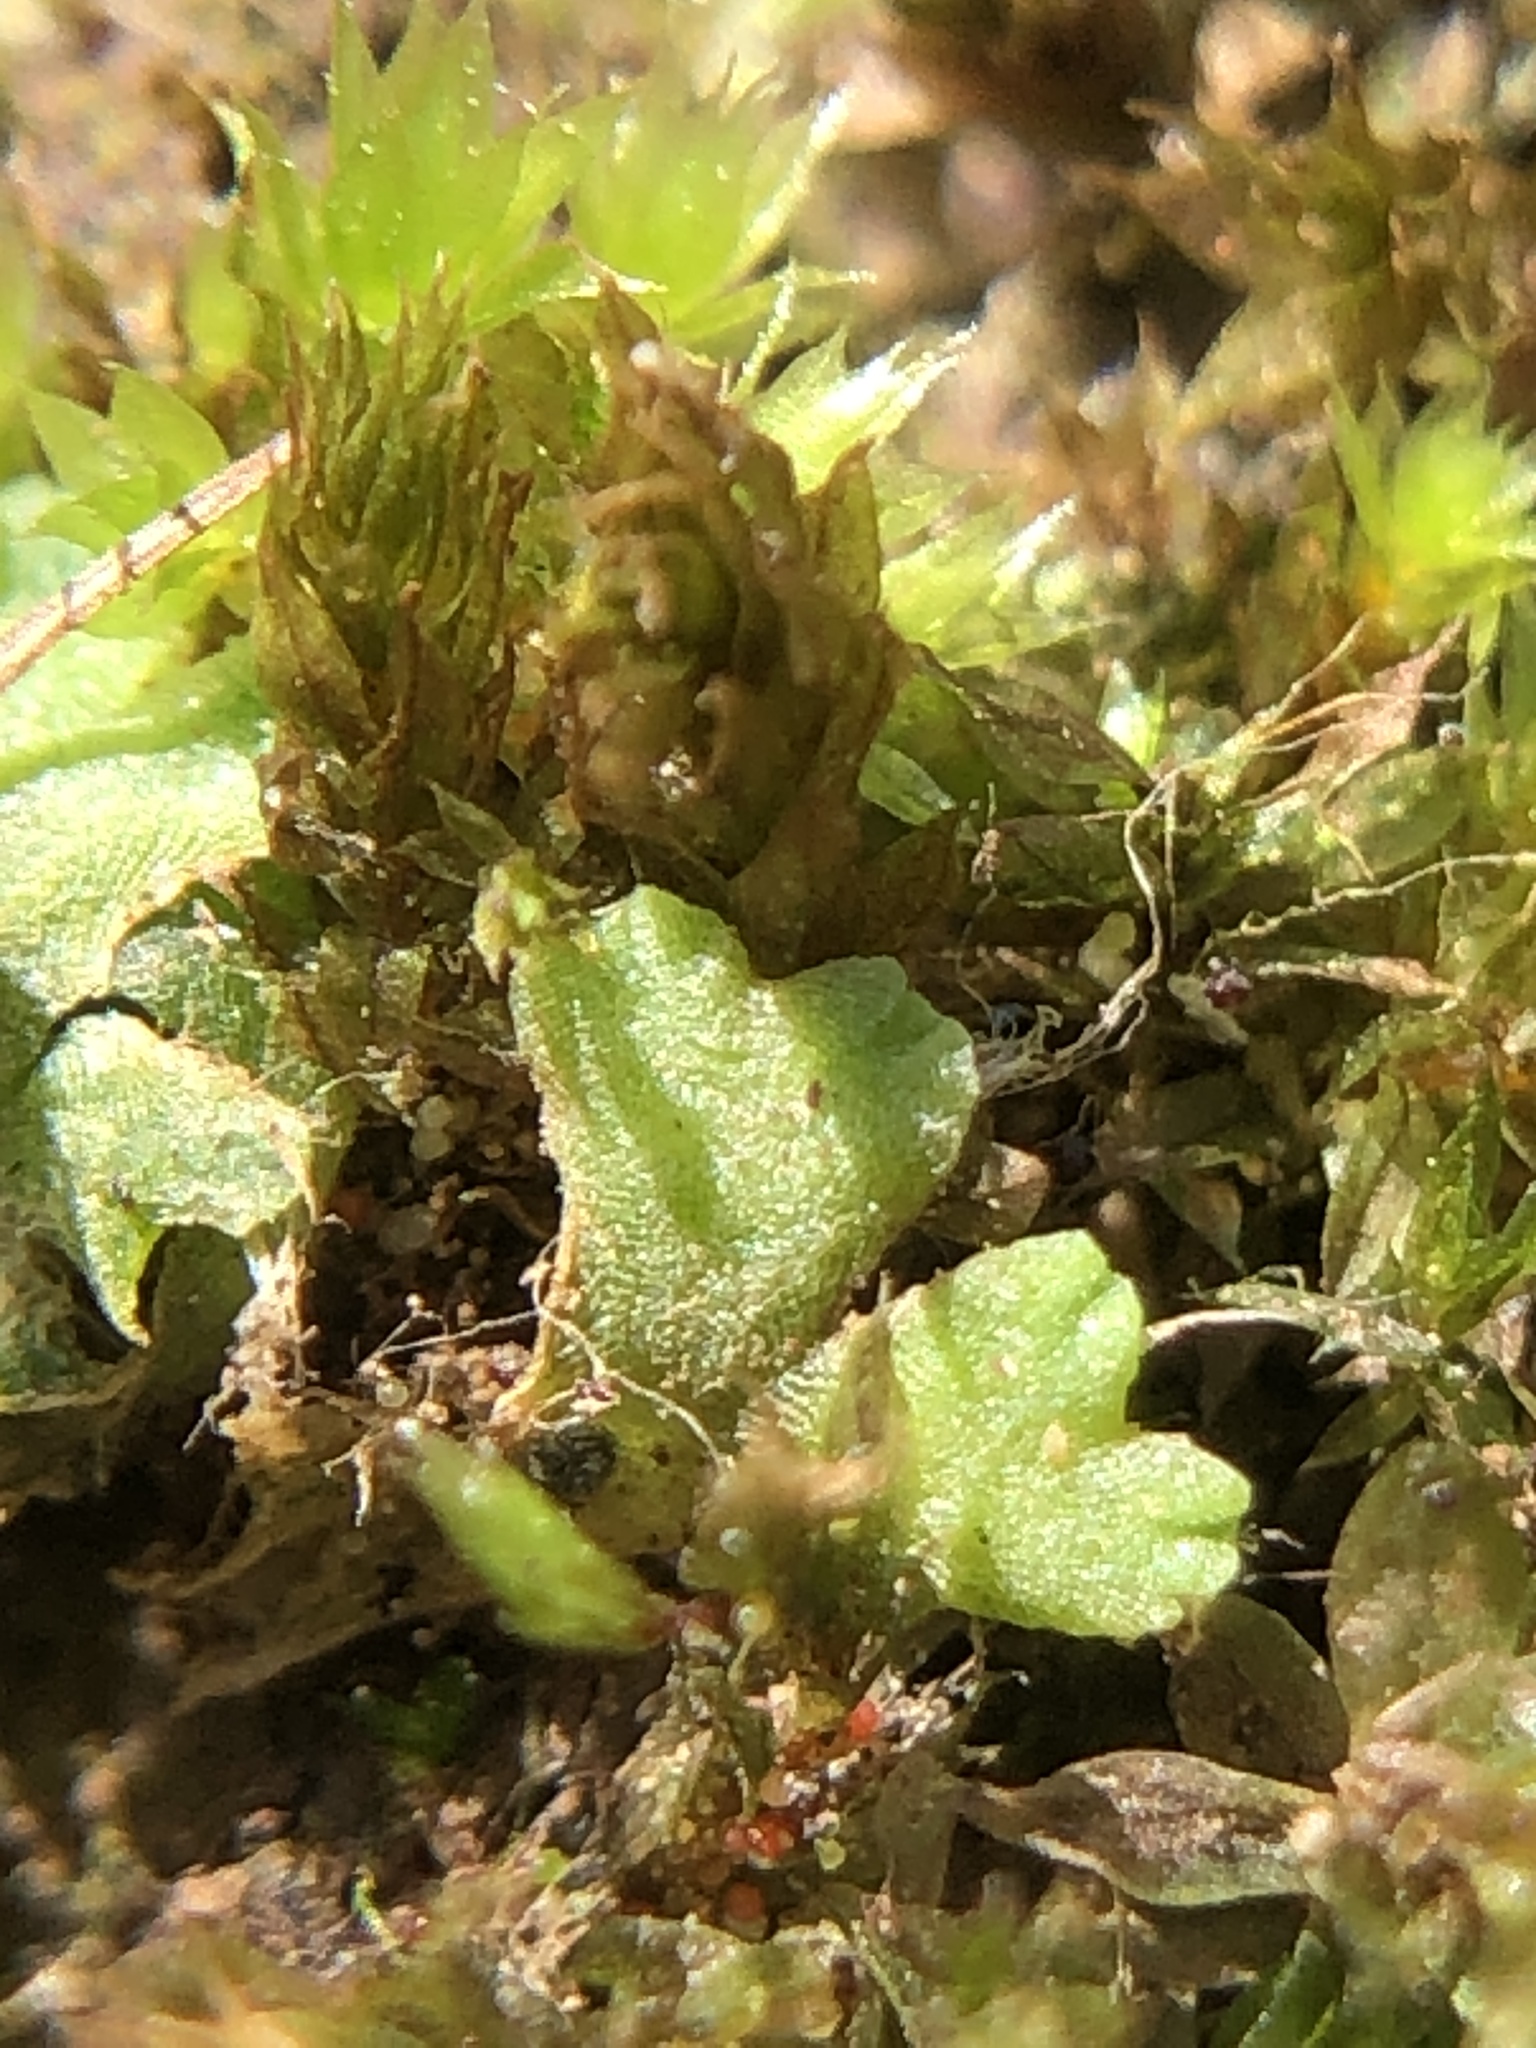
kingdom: Plantae
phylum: Marchantiophyta
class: Marchantiopsida
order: Marchantiales
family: Ricciaceae
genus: Riccia
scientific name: Riccia glauca
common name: Glaucous crystalwort
